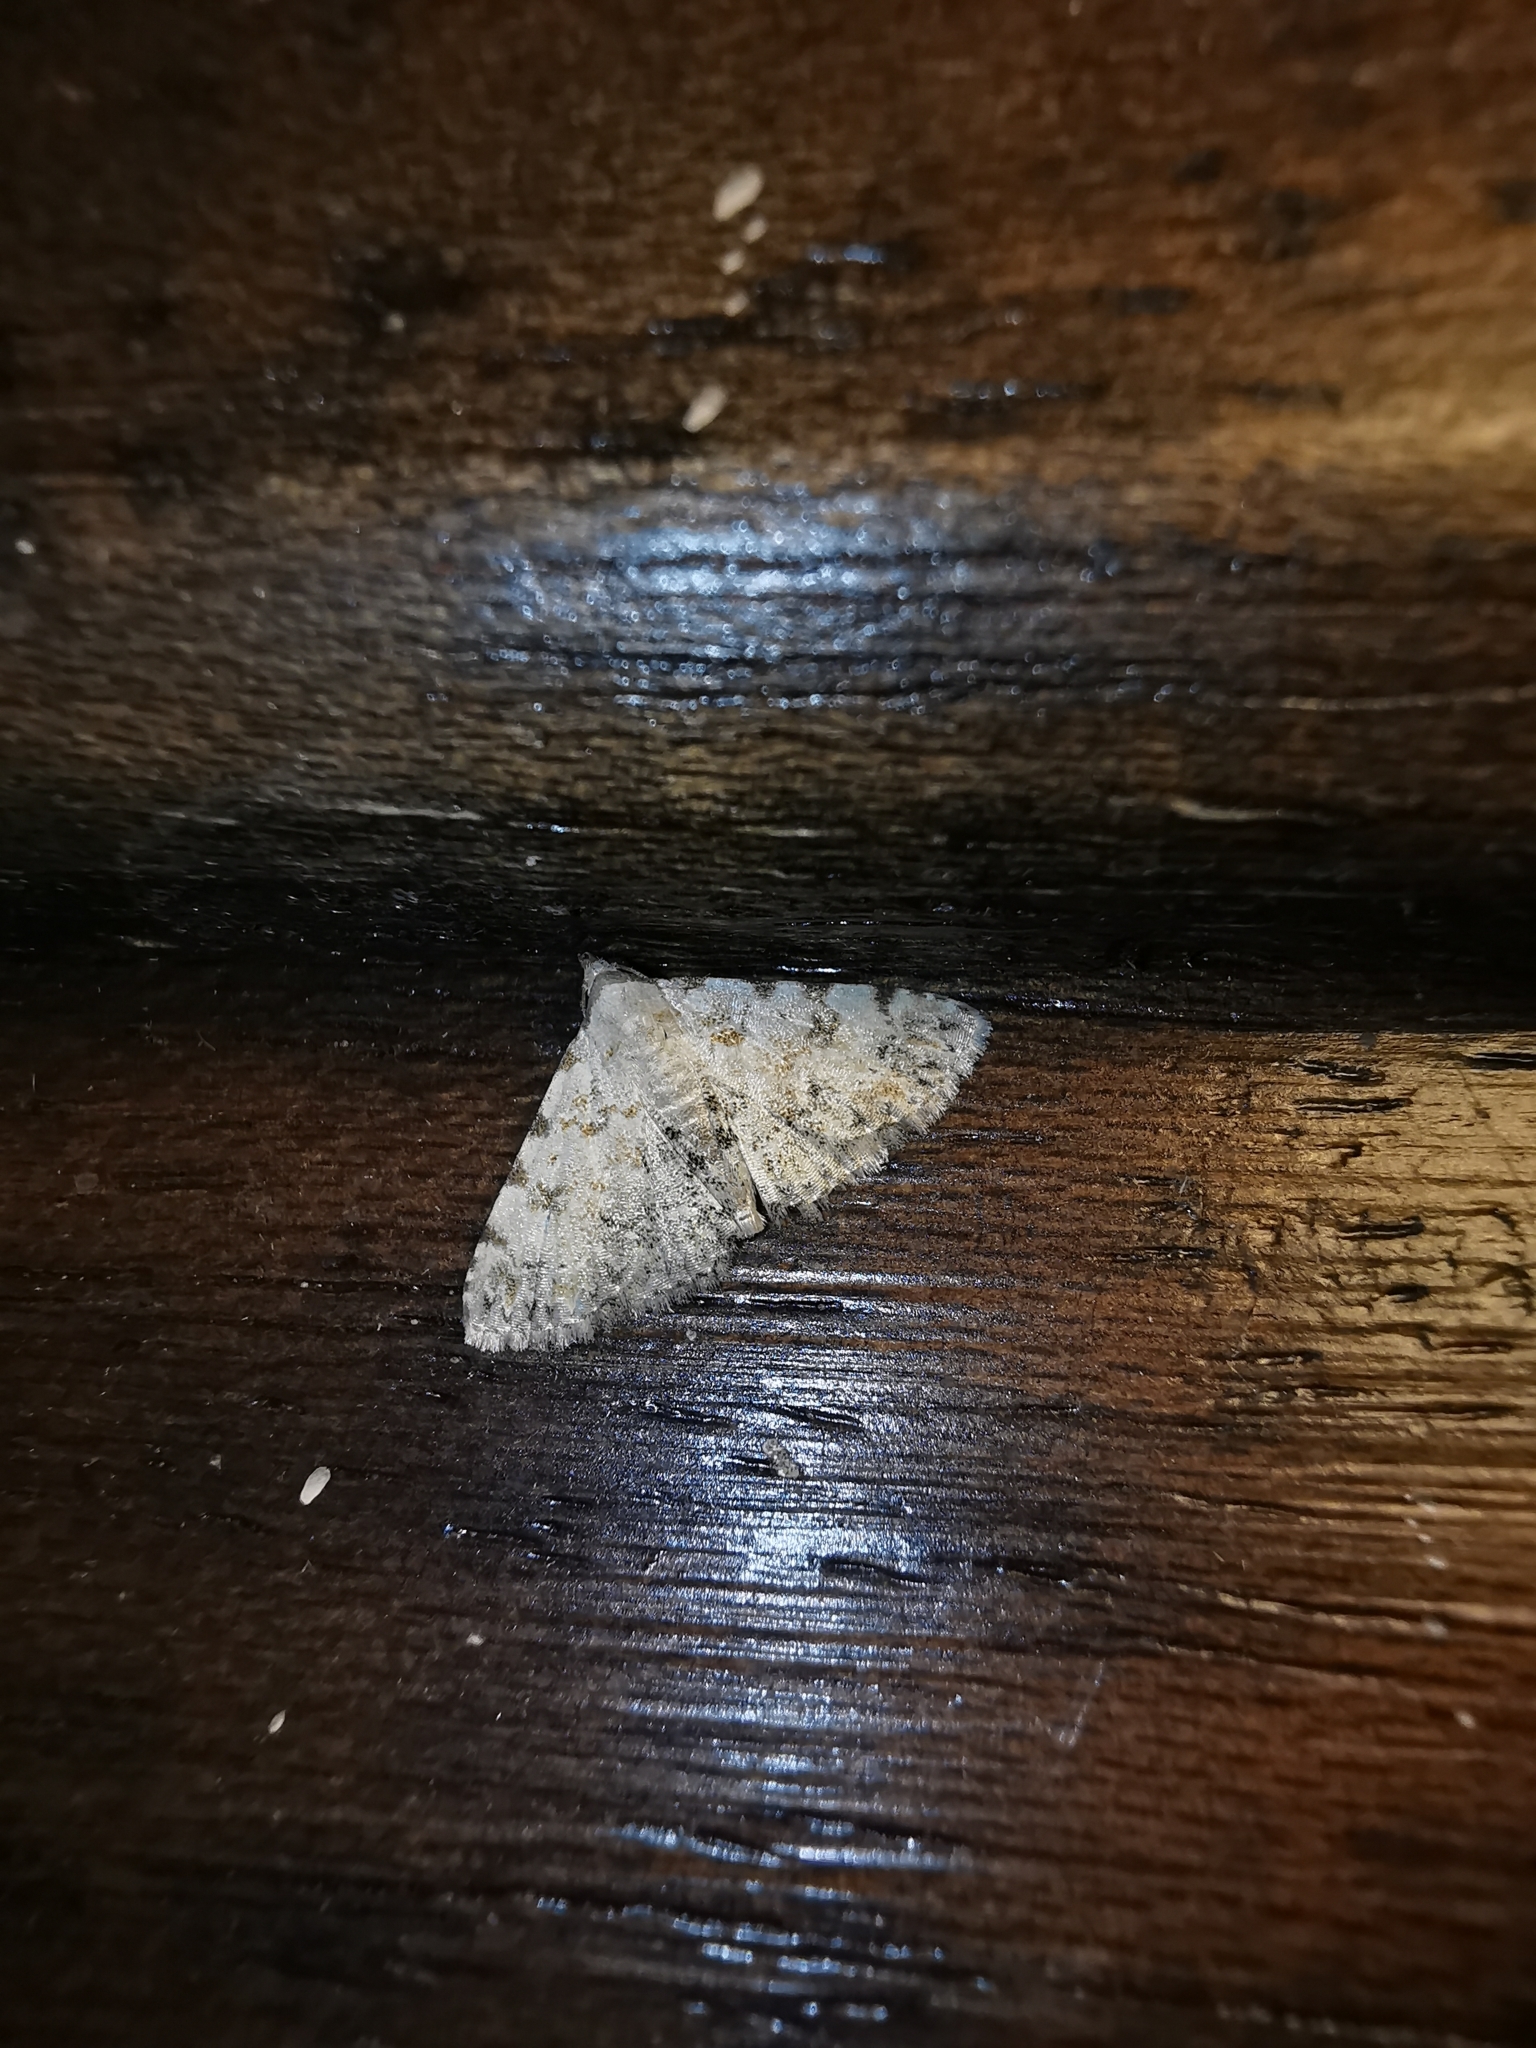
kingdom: Animalia
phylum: Arthropoda
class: Insecta
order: Lepidoptera
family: Noctuidae
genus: Metachrostis
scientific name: Metachrostis velox
